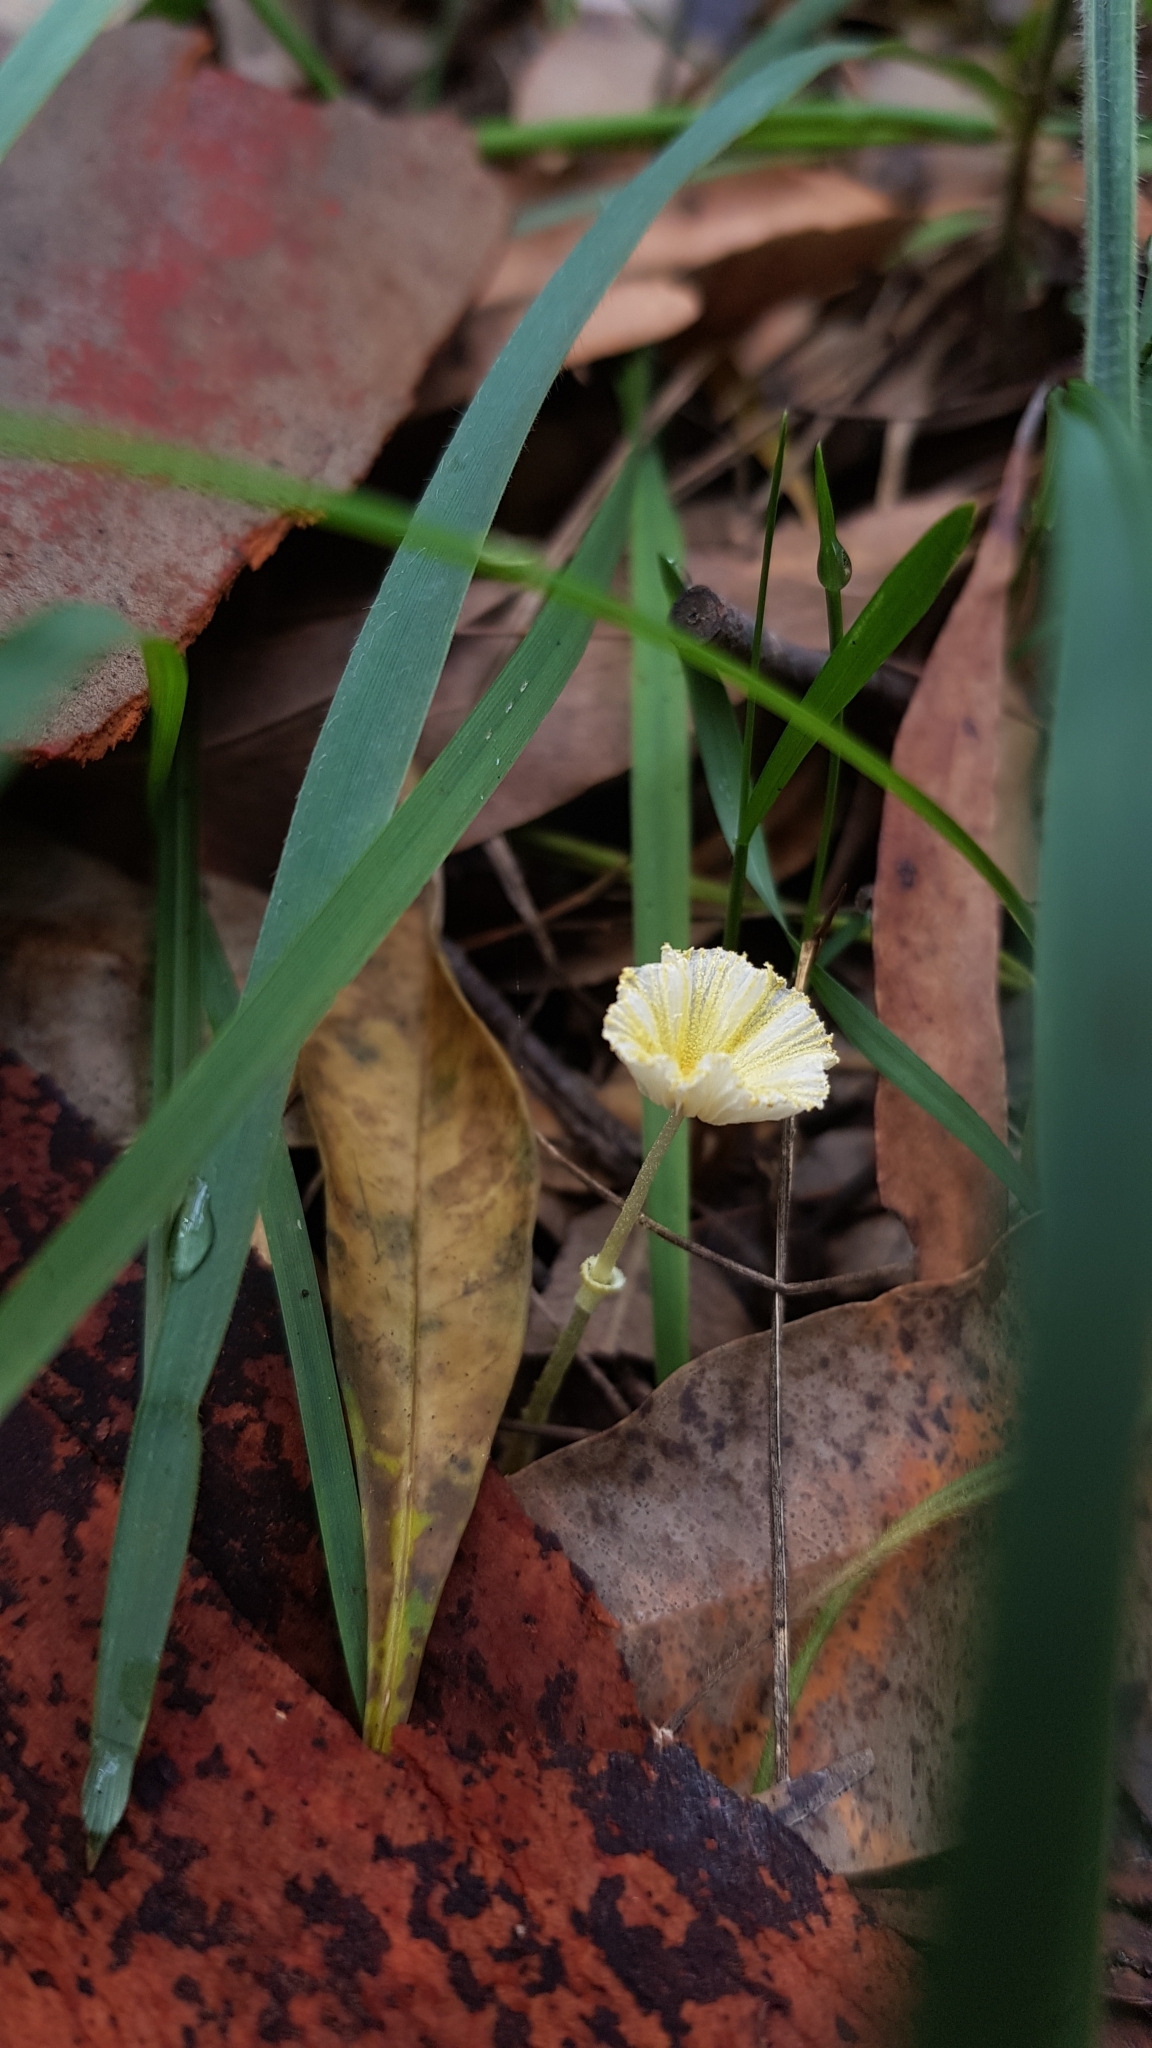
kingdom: Fungi
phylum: Basidiomycota
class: Agaricomycetes
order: Agaricales
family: Agaricaceae
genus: Leucocoprinus
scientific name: Leucocoprinus fragilissimus
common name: Fragile dapperling
